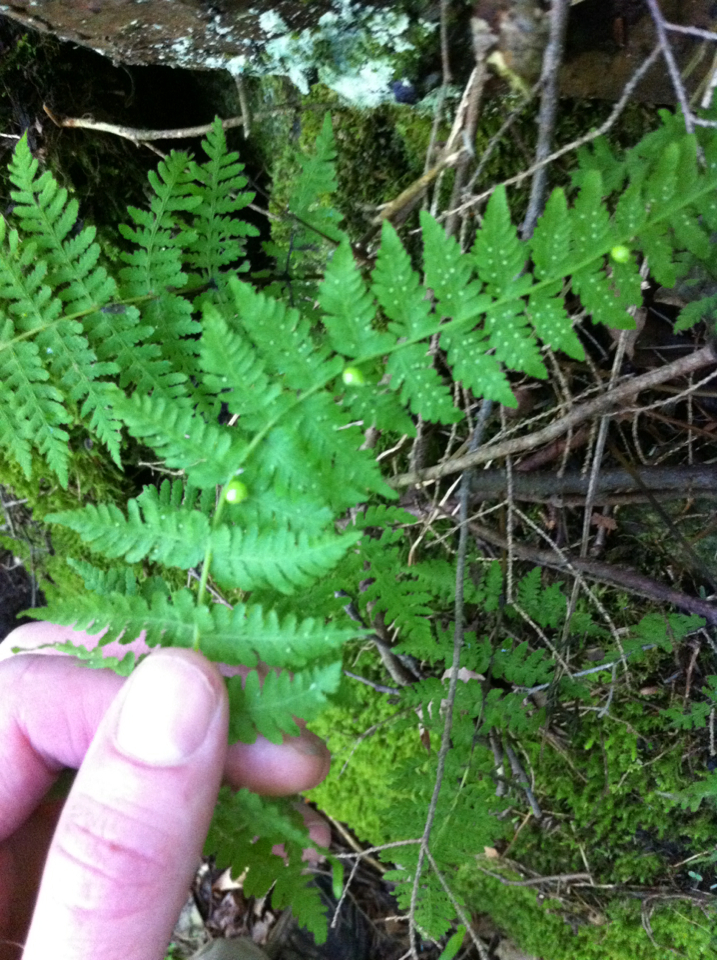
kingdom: Plantae
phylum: Tracheophyta
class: Polypodiopsida
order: Polypodiales
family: Cystopteridaceae
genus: Cystopteris
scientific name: Cystopteris bulbifera
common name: Bulblet bladder fern
